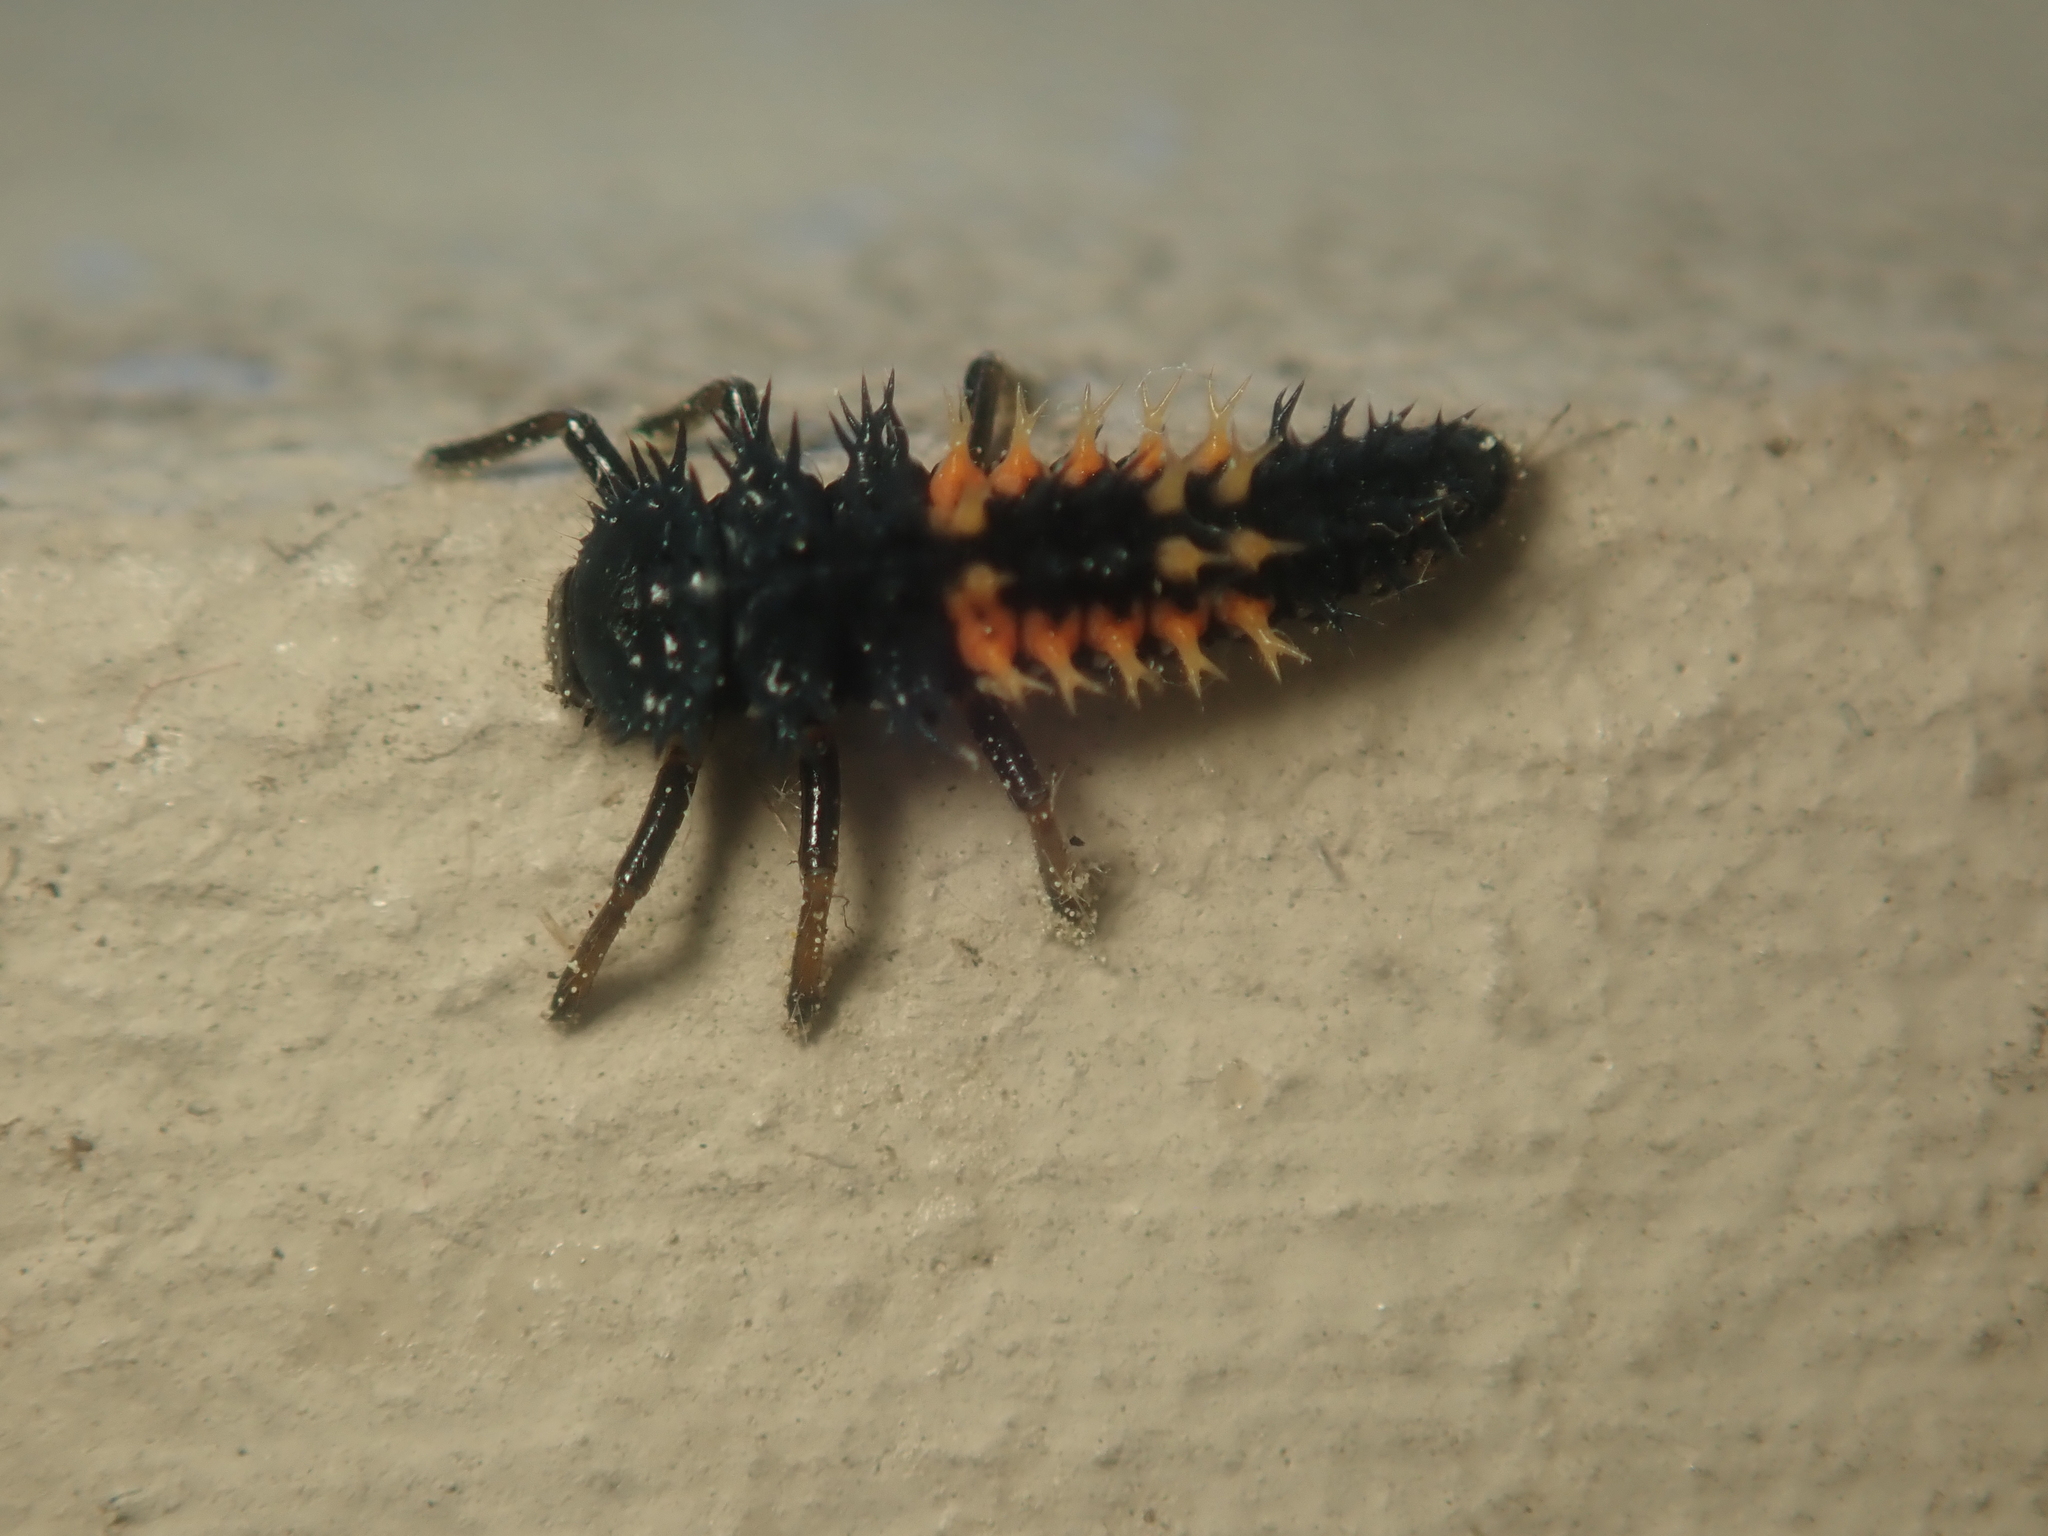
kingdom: Animalia
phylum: Arthropoda
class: Insecta
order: Coleoptera
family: Coccinellidae
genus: Harmonia
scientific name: Harmonia axyridis
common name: Harlequin ladybird
